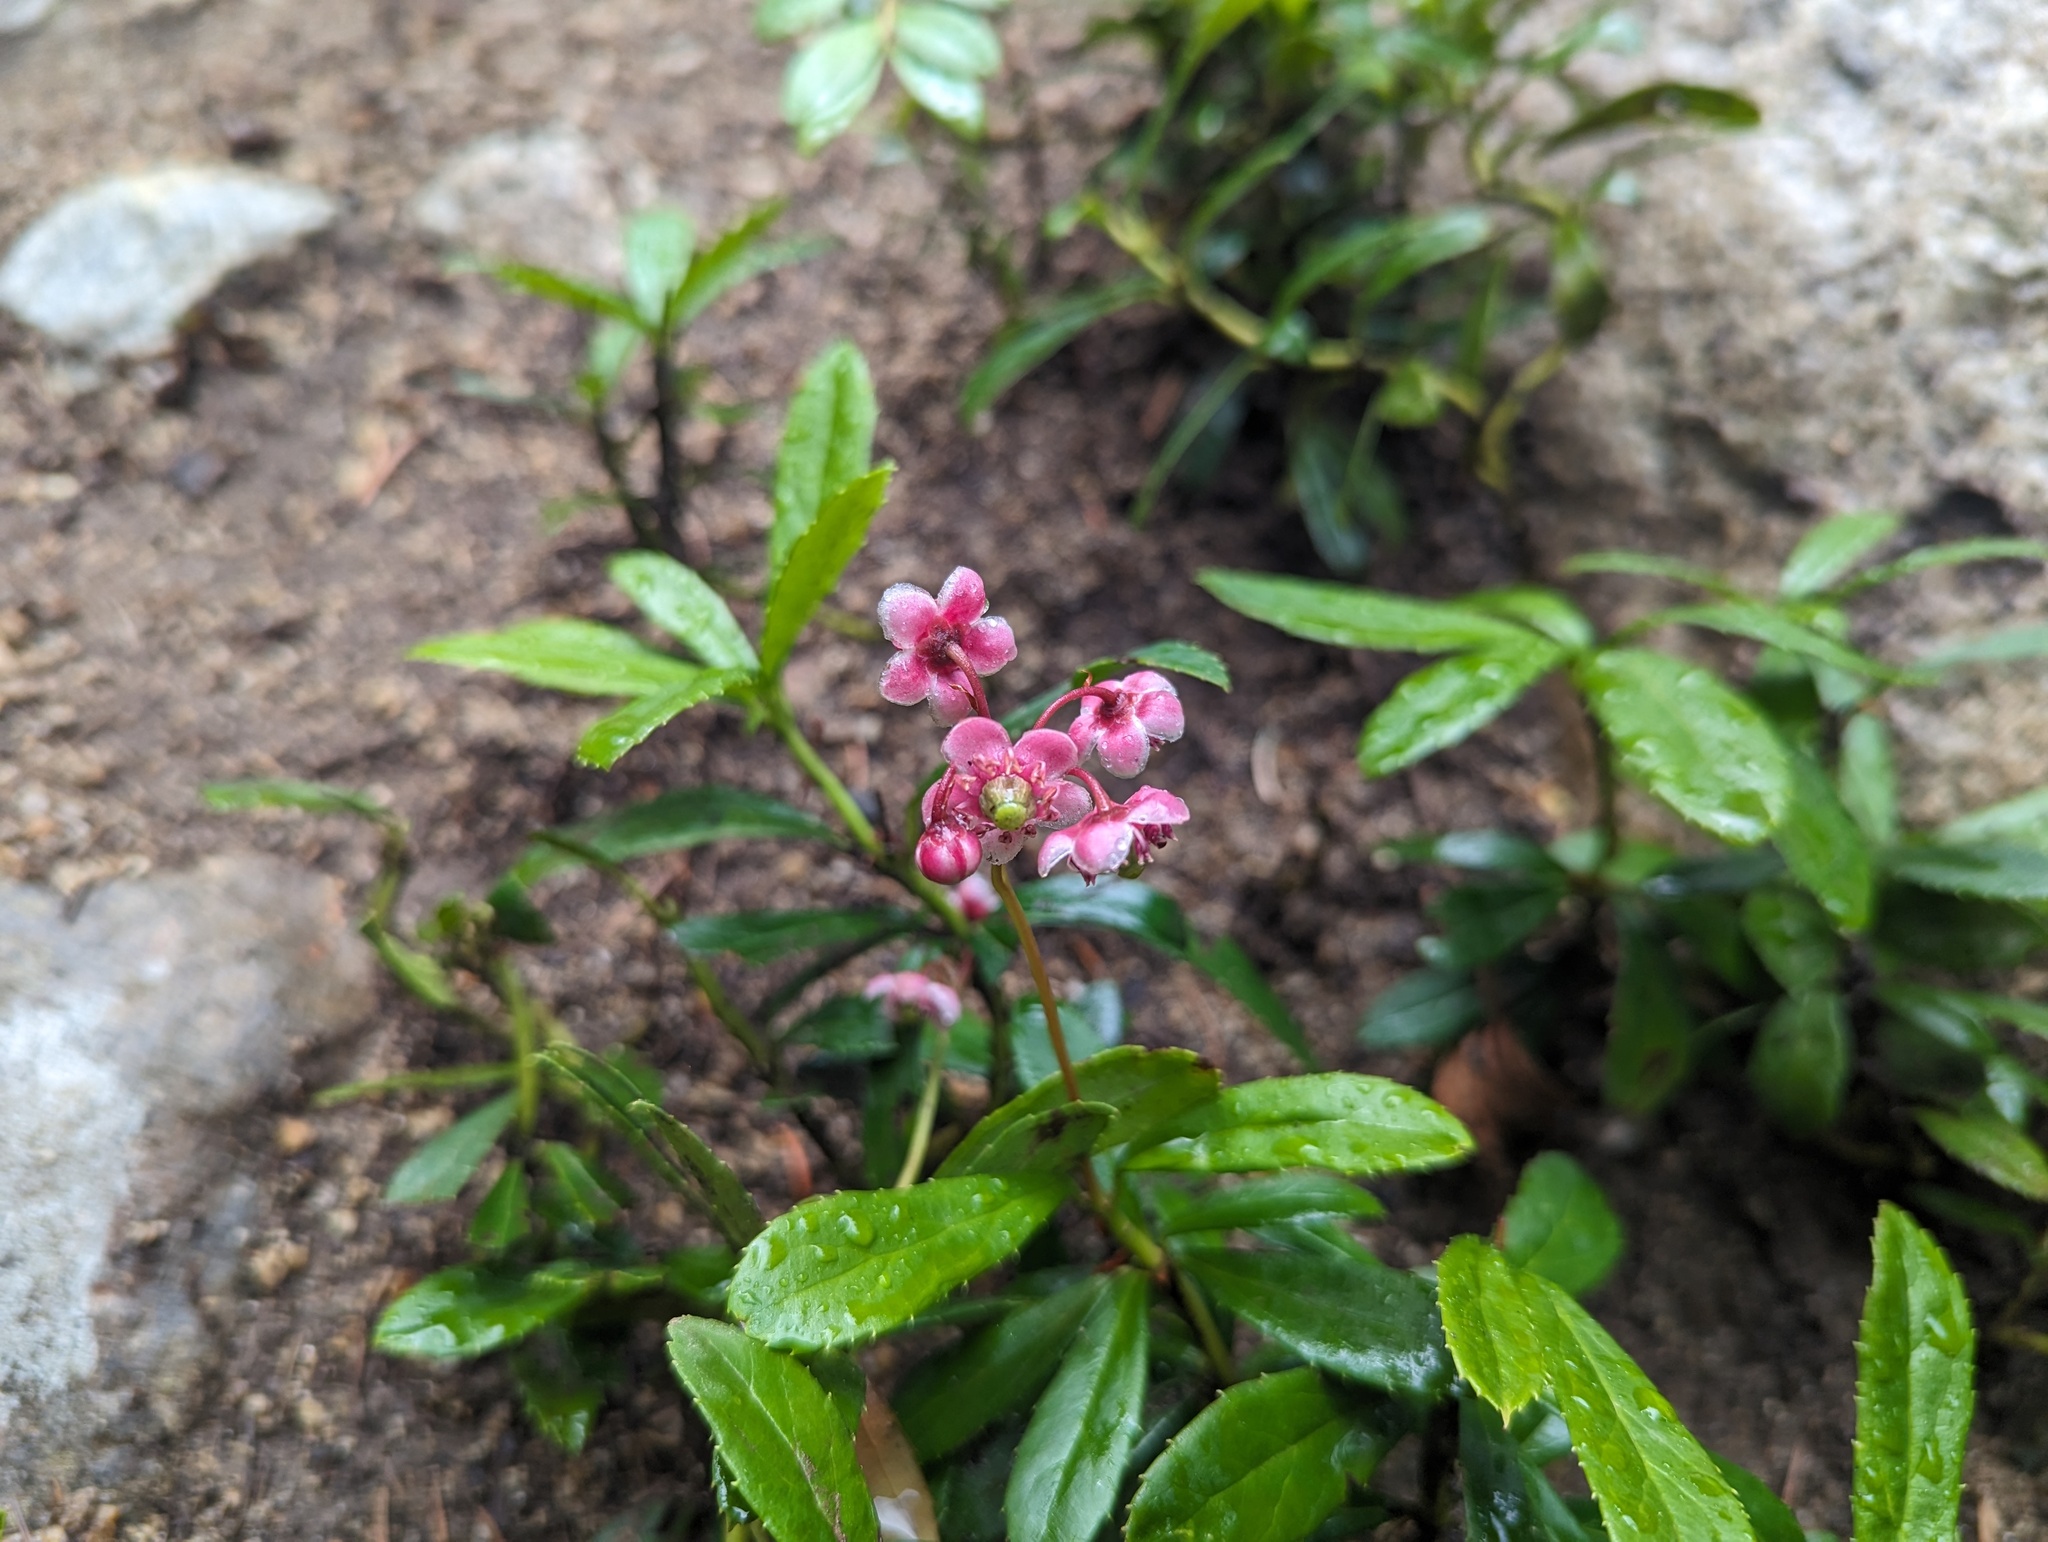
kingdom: Plantae
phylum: Tracheophyta
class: Magnoliopsida
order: Ericales
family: Ericaceae
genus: Chimaphila
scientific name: Chimaphila umbellata
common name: Pipsissewa
